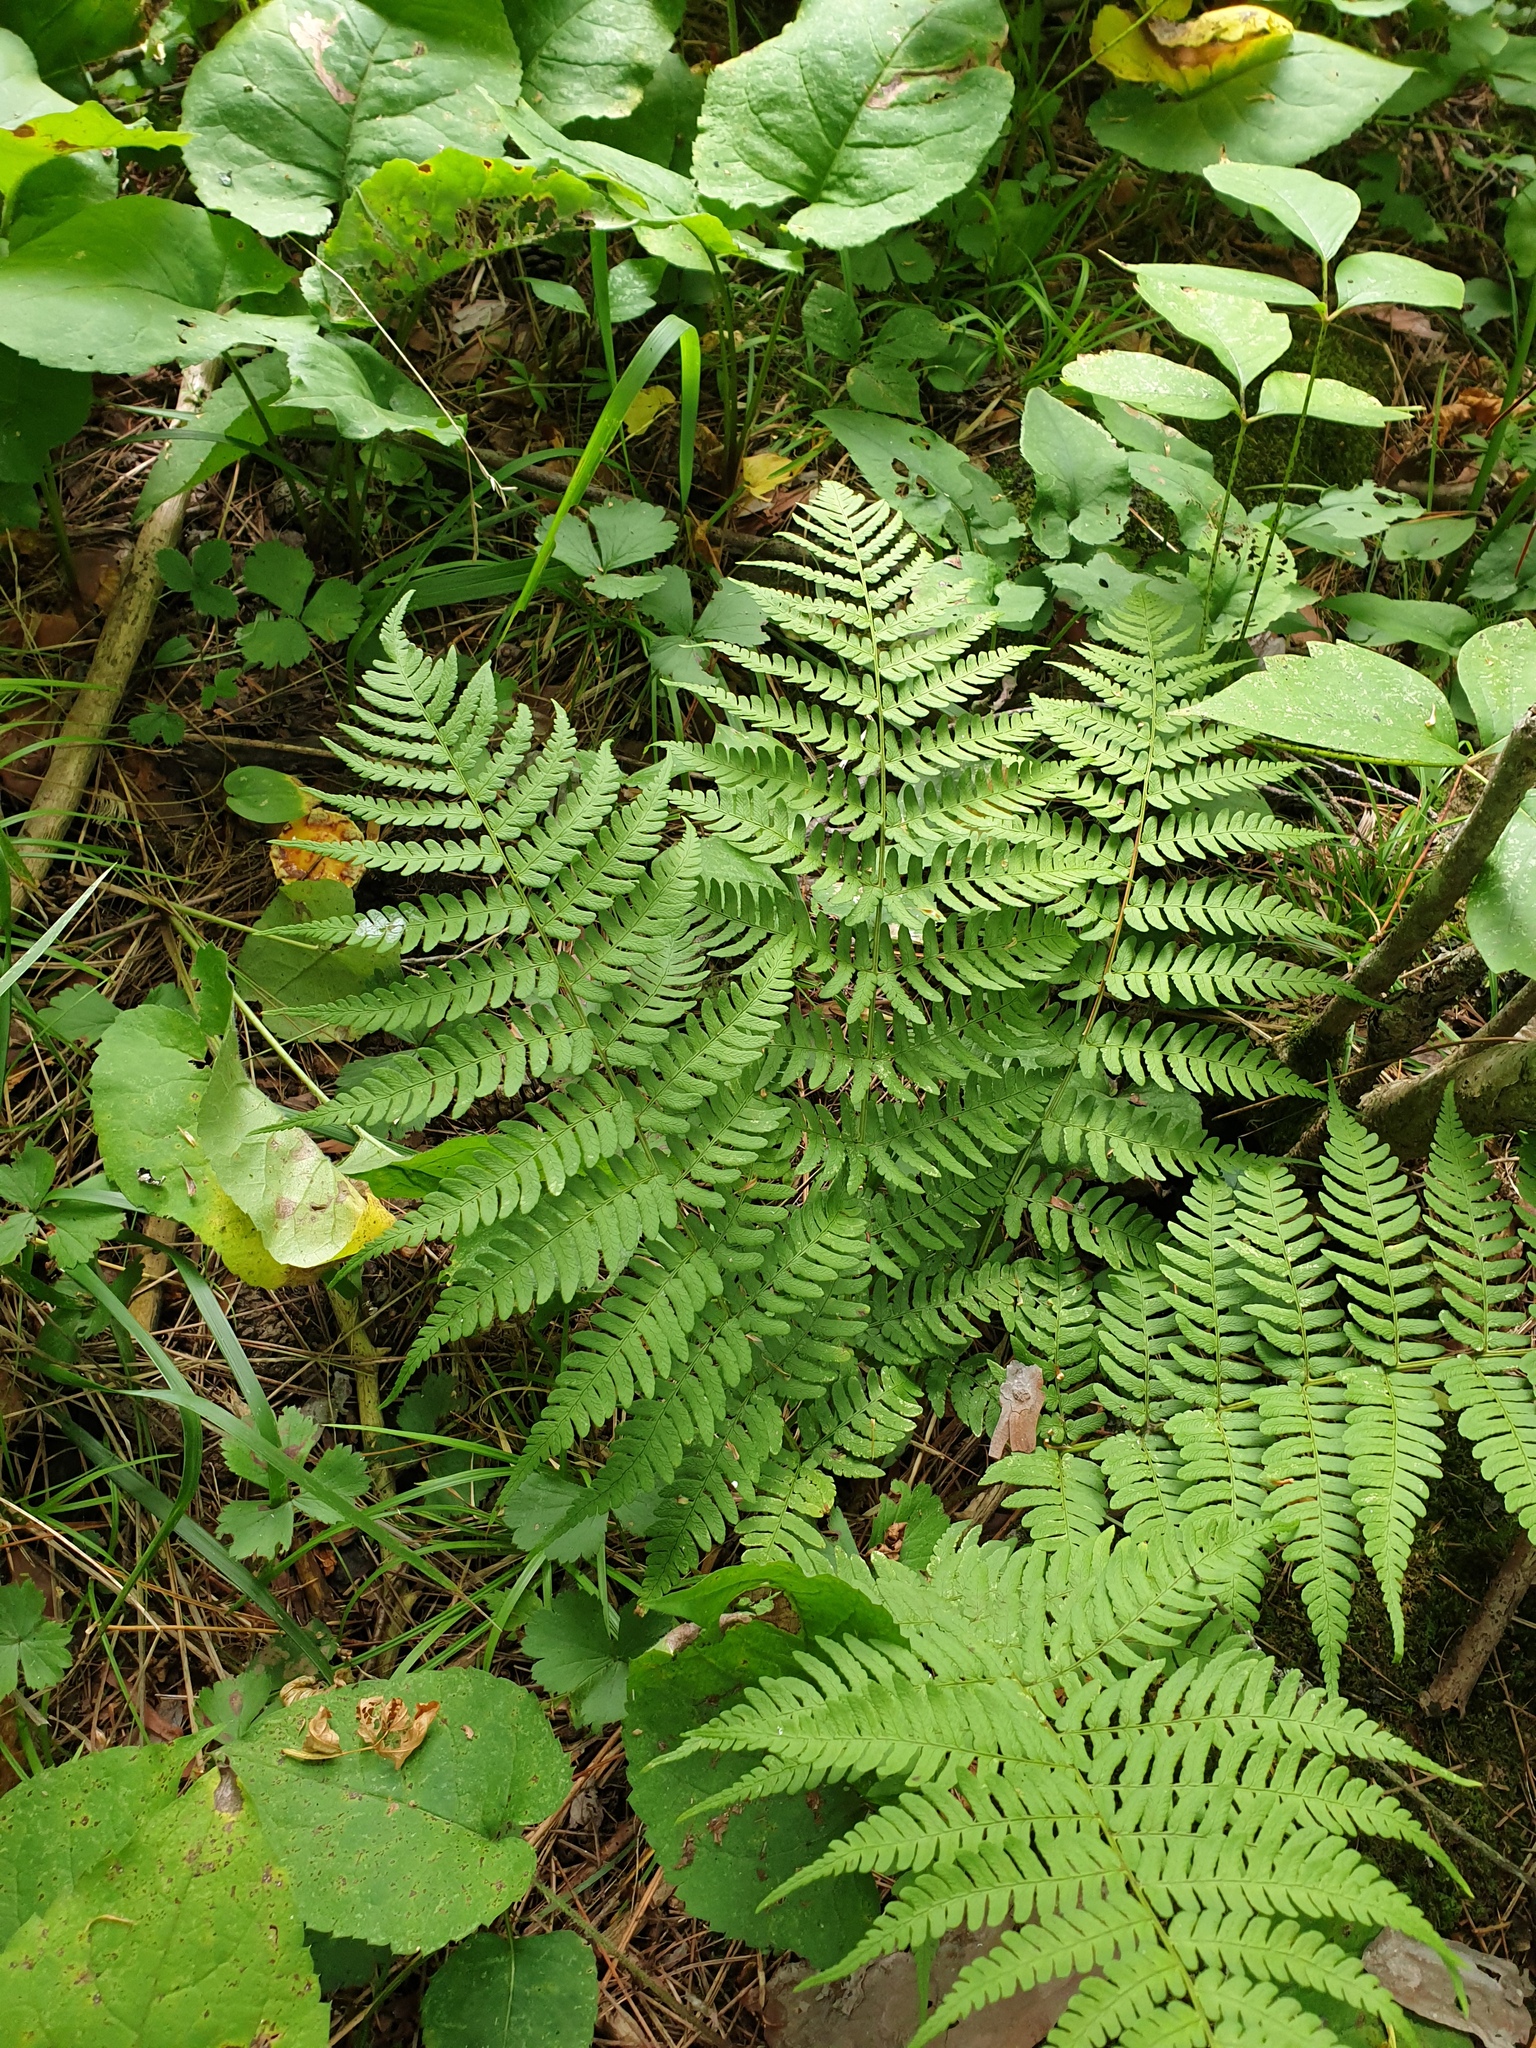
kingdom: Plantae
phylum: Tracheophyta
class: Polypodiopsida
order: Polypodiales
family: Dryopteridaceae
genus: Dryopteris
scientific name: Dryopteris marginalis
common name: Marginal wood fern
